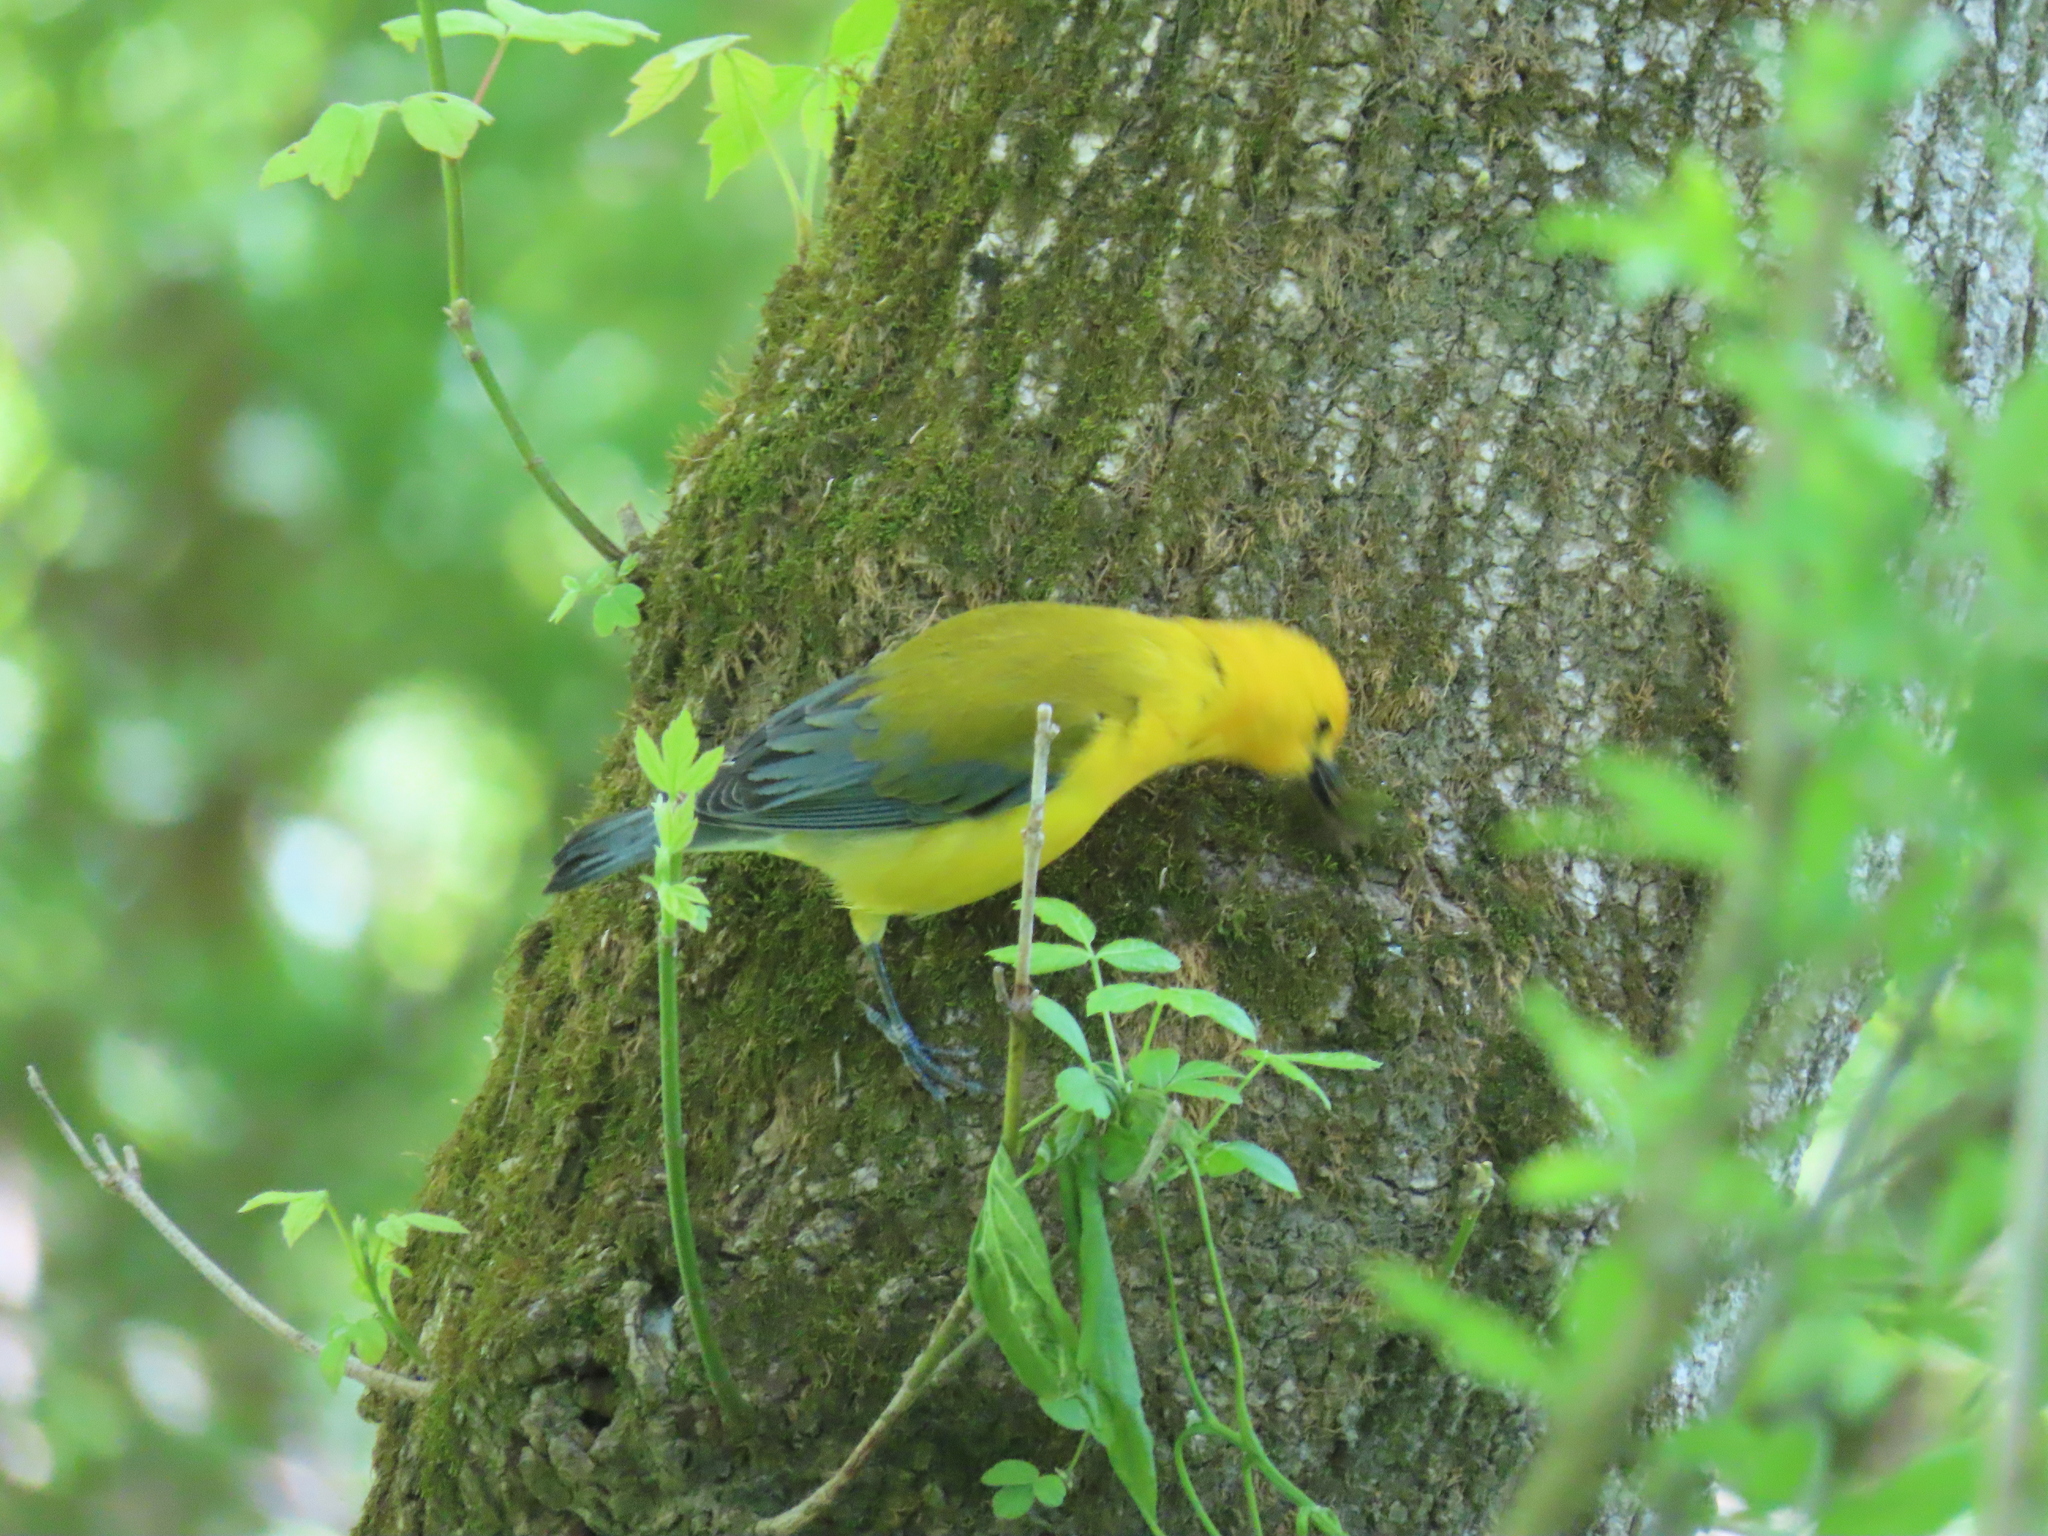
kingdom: Animalia
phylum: Chordata
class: Aves
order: Passeriformes
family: Parulidae
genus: Protonotaria
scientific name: Protonotaria citrea
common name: Prothonotary warbler
